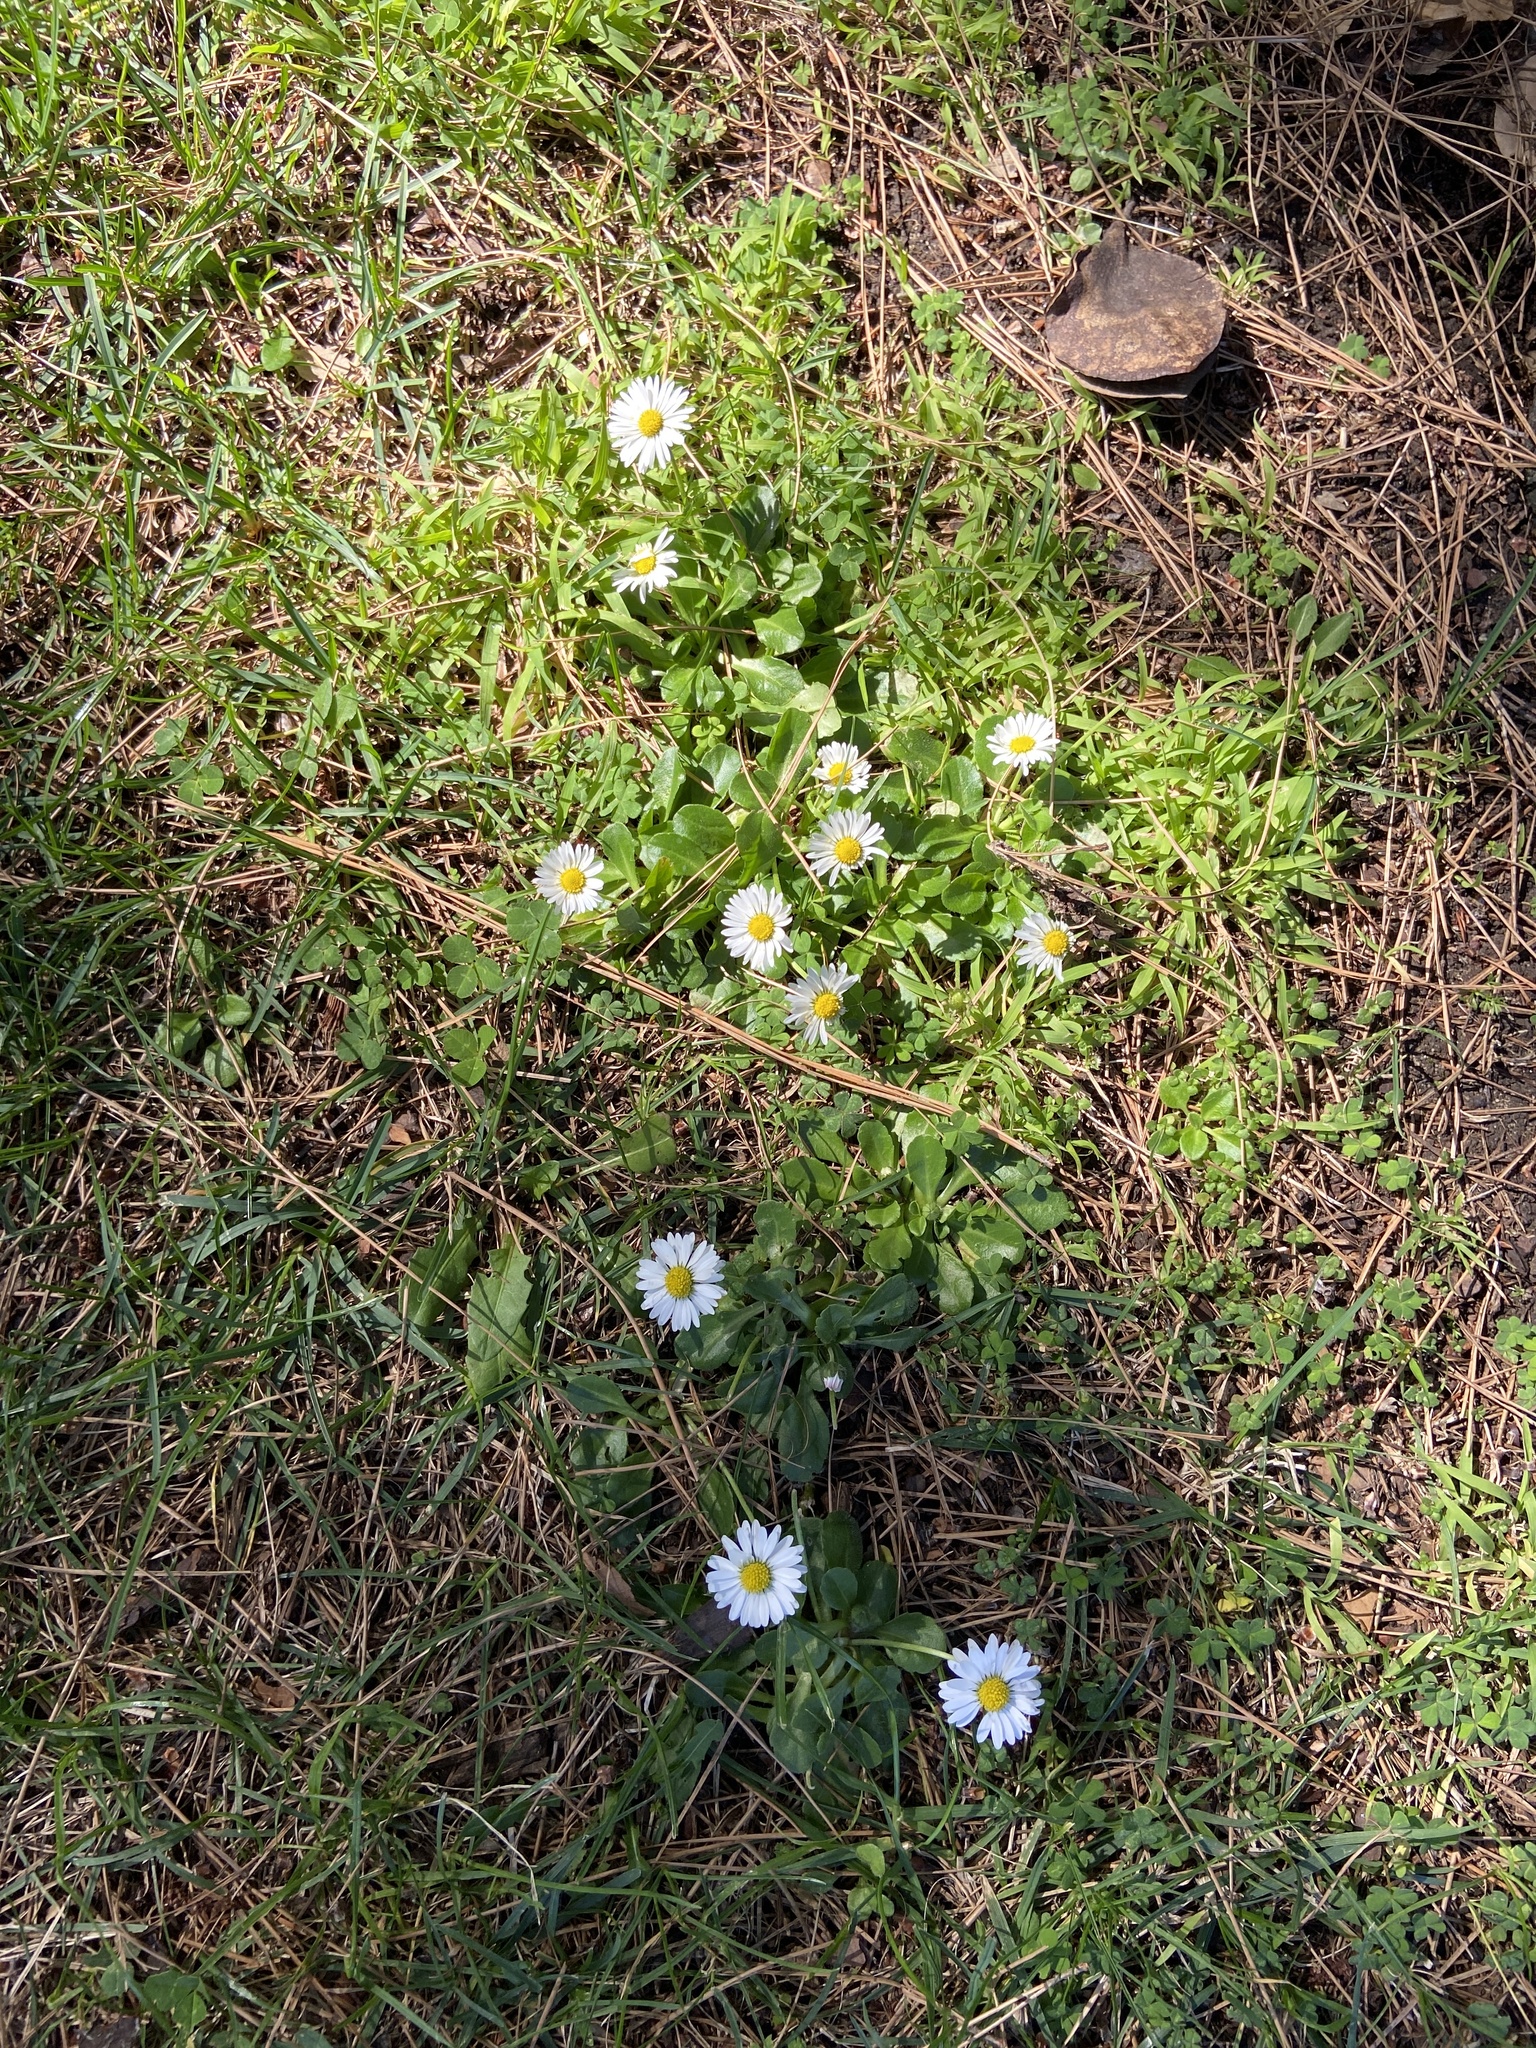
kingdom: Plantae
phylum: Tracheophyta
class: Magnoliopsida
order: Asterales
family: Asteraceae
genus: Bellis
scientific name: Bellis perennis
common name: Lawndaisy
